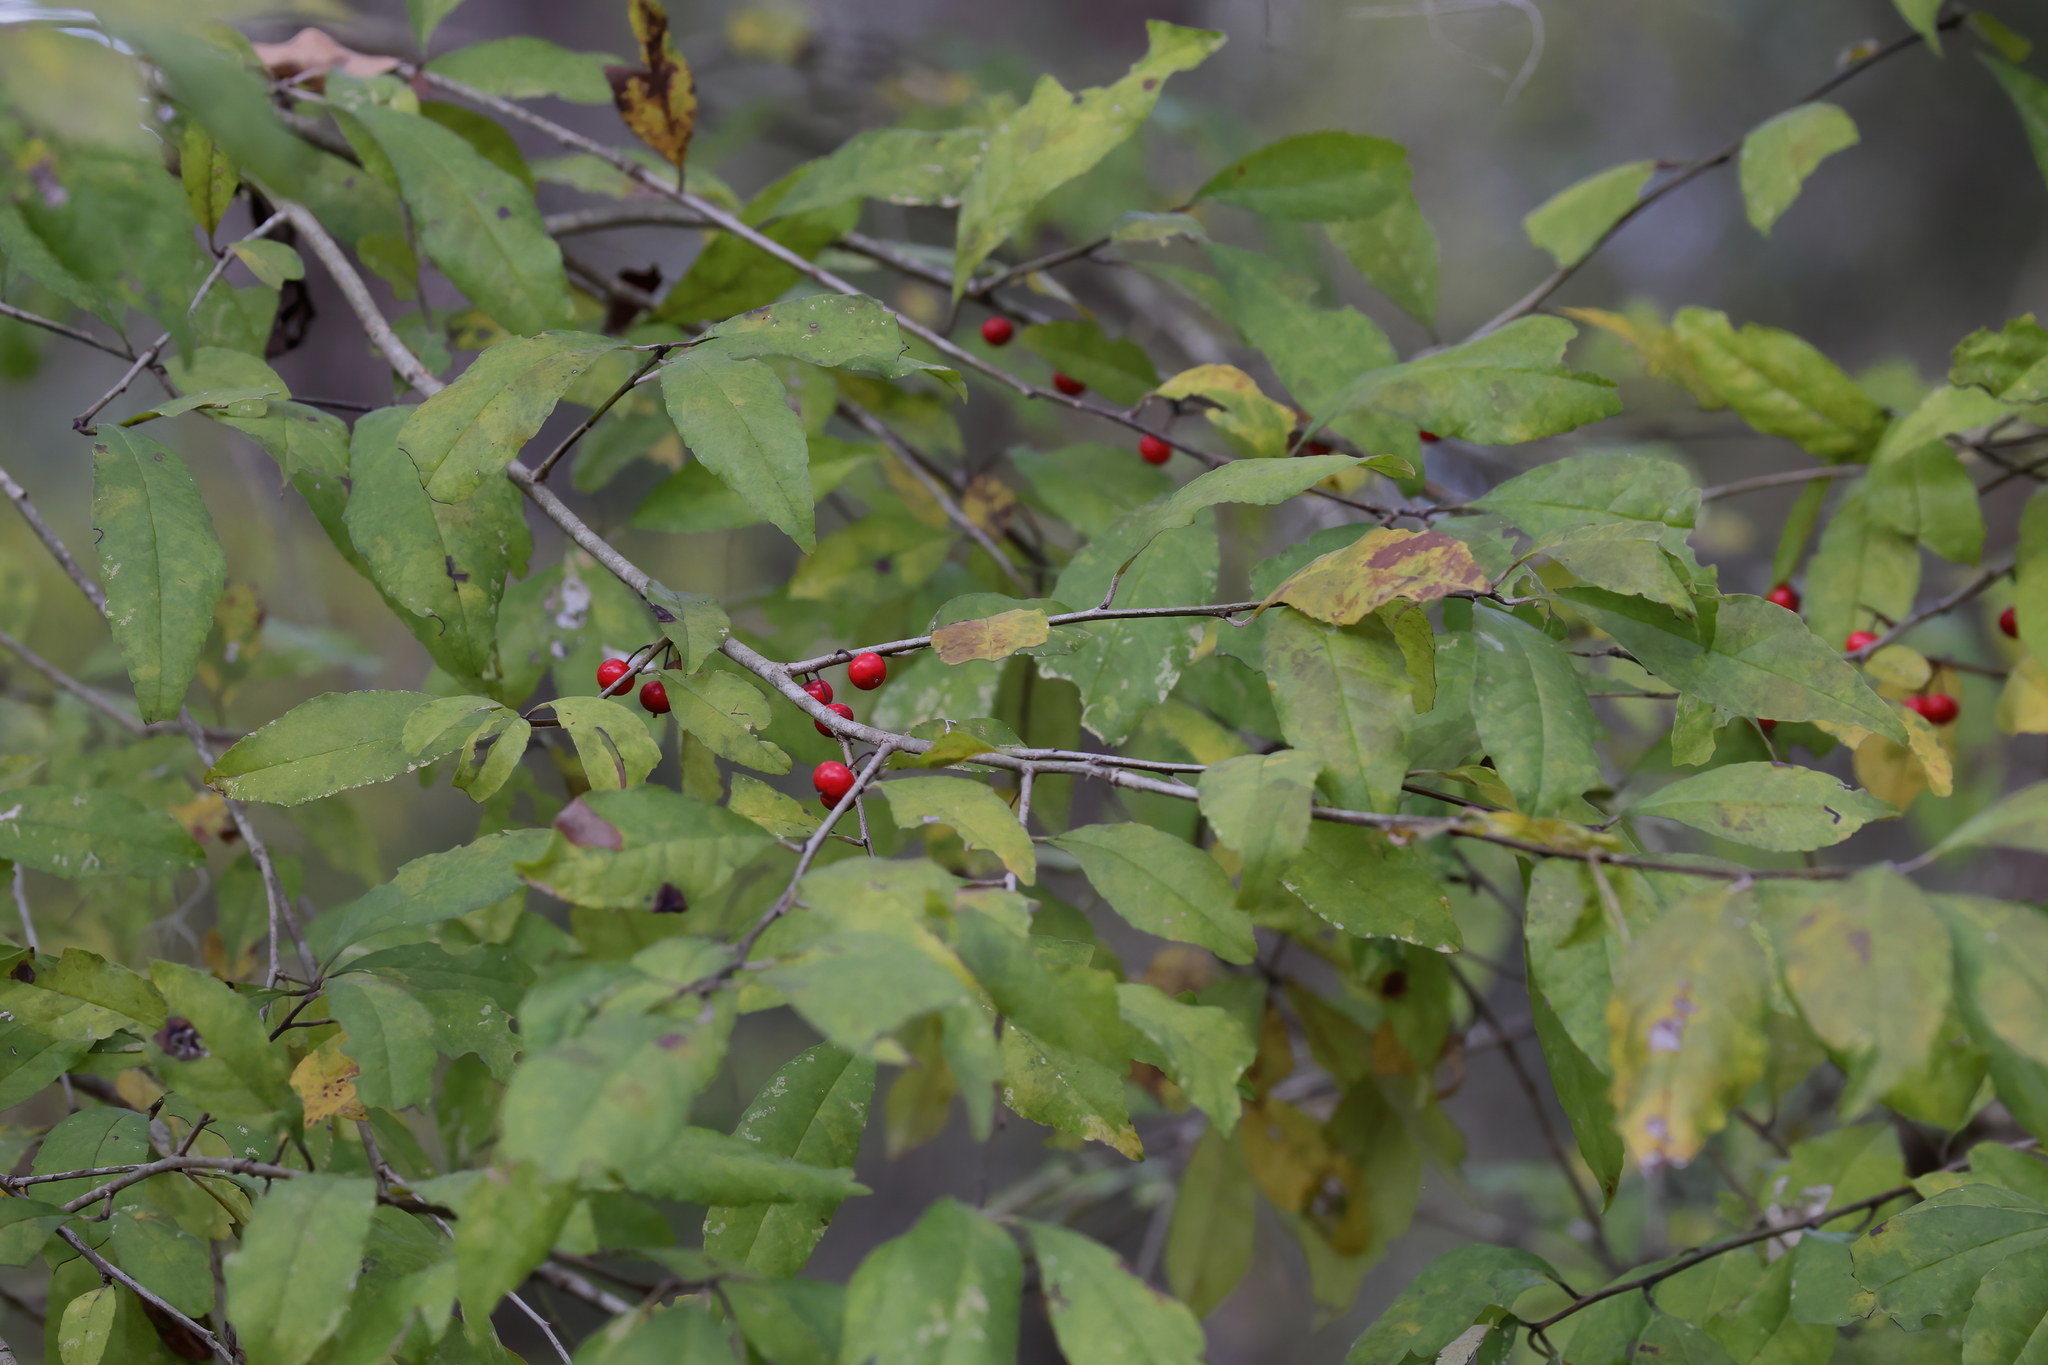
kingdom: Plantae
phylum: Tracheophyta
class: Magnoliopsida
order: Aquifoliales
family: Aquifoliaceae
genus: Ilex
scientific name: Ilex decidua
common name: Possum-haw
